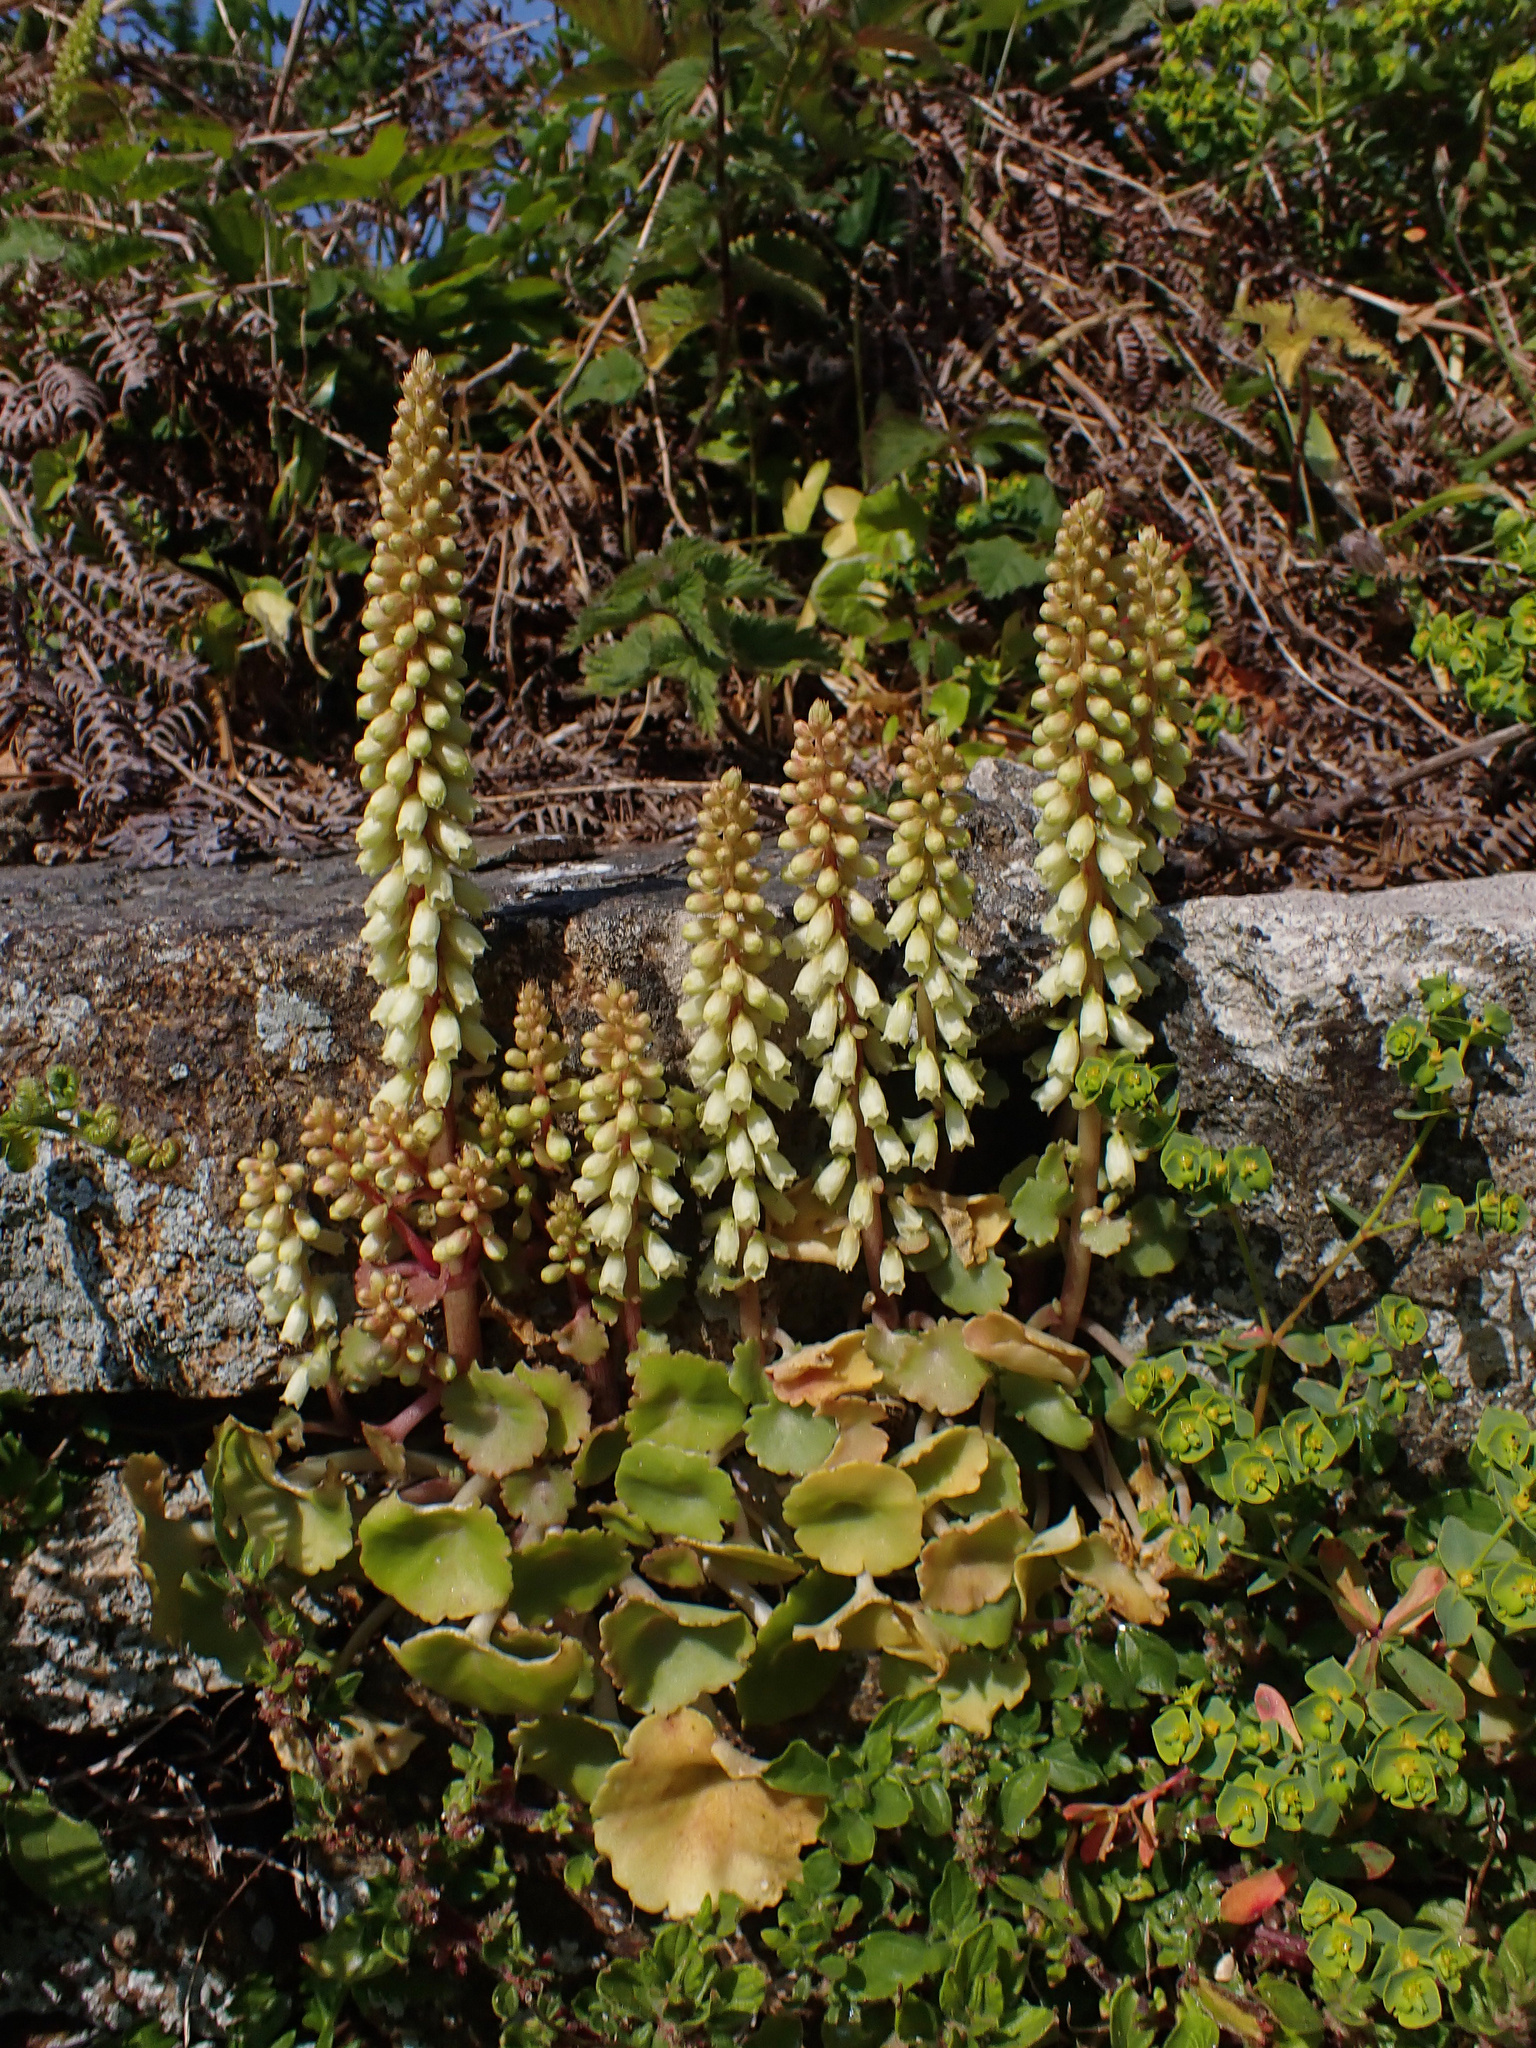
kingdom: Plantae
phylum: Tracheophyta
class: Magnoliopsida
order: Saxifragales
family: Crassulaceae
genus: Umbilicus
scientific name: Umbilicus rupestris
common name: Navelwort
